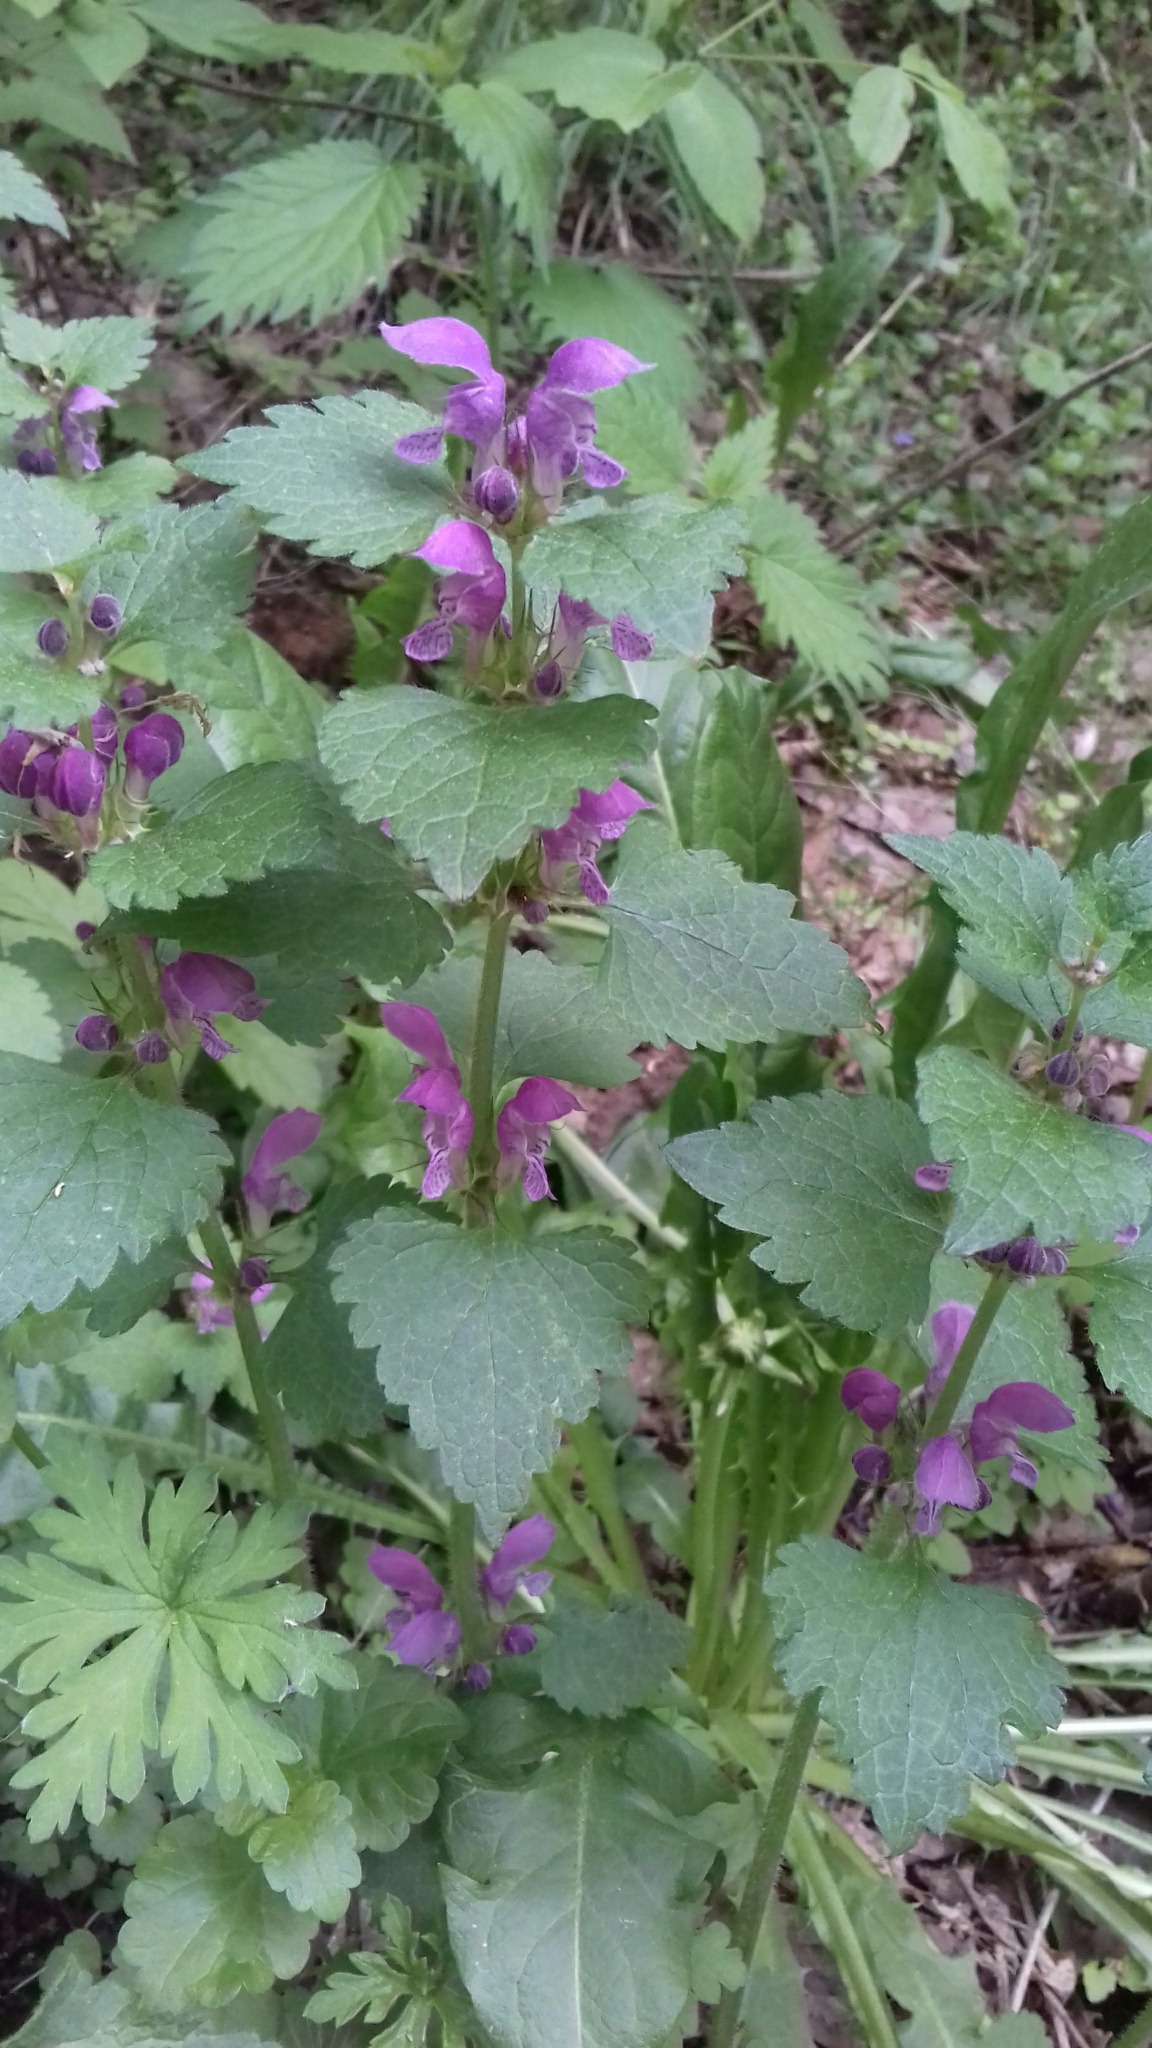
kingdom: Plantae
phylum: Tracheophyta
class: Magnoliopsida
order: Lamiales
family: Lamiaceae
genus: Lamium
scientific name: Lamium maculatum
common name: Spotted dead-nettle
